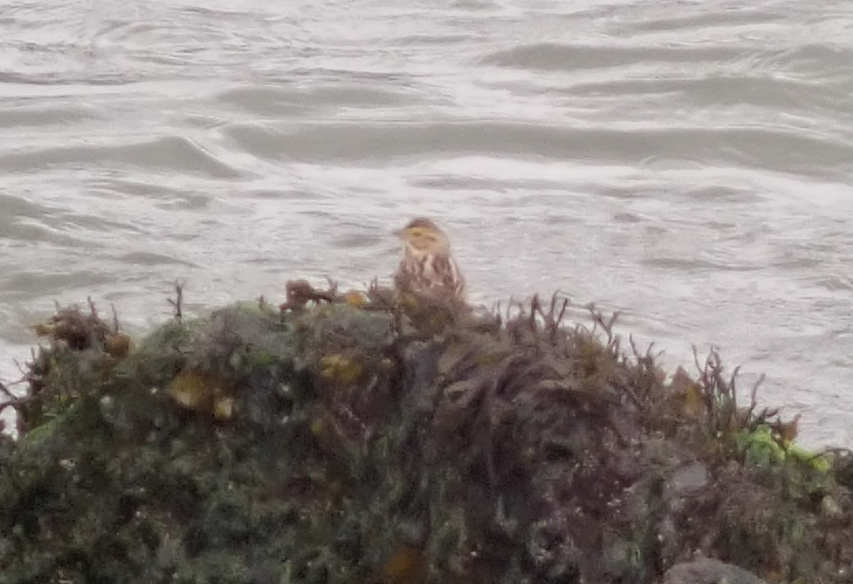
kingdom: Animalia
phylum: Chordata
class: Aves
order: Passeriformes
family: Passerellidae
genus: Passerculus
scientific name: Passerculus sandwichensis
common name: Savannah sparrow
